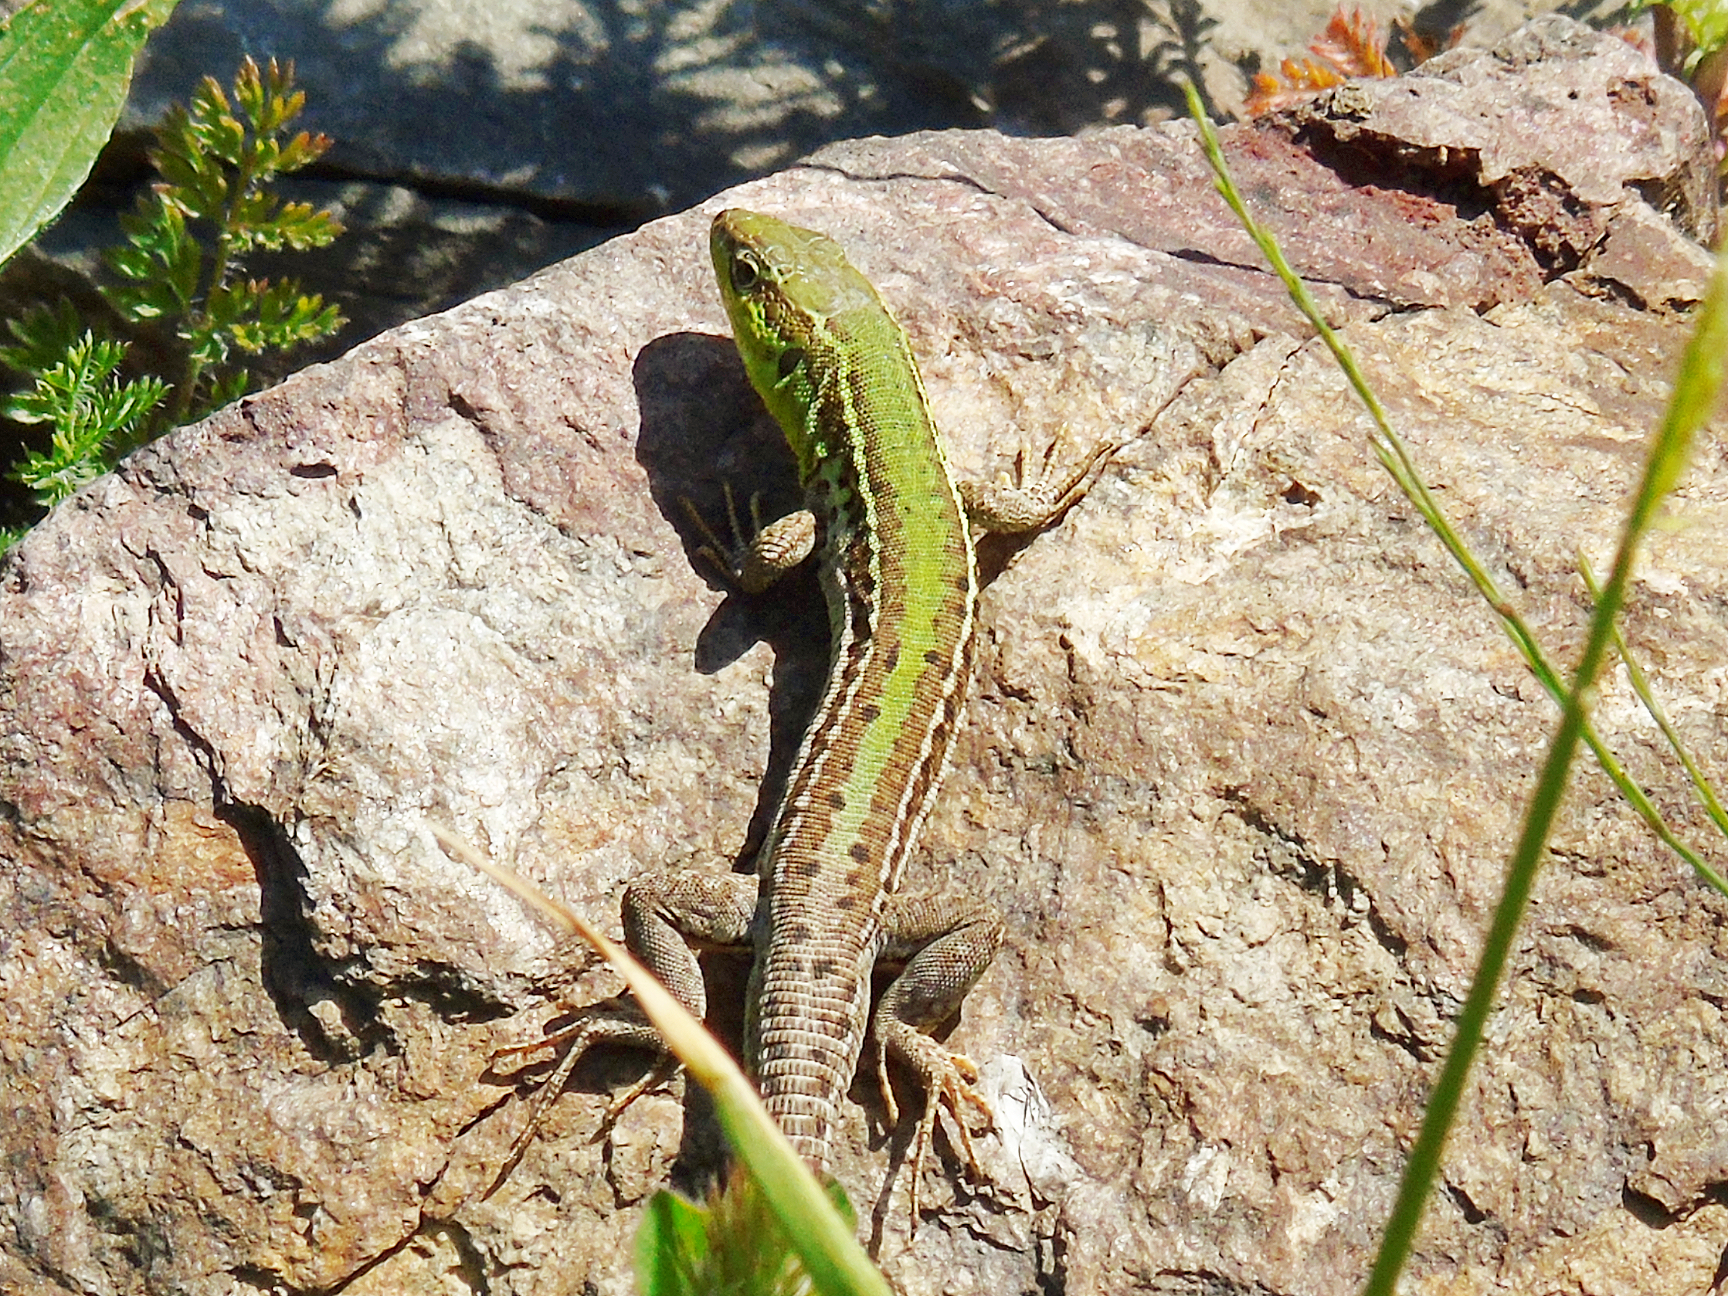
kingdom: Animalia
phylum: Chordata
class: Squamata
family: Lacertidae
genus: Podarcis
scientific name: Podarcis tauricus
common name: Balkan wall lizard
